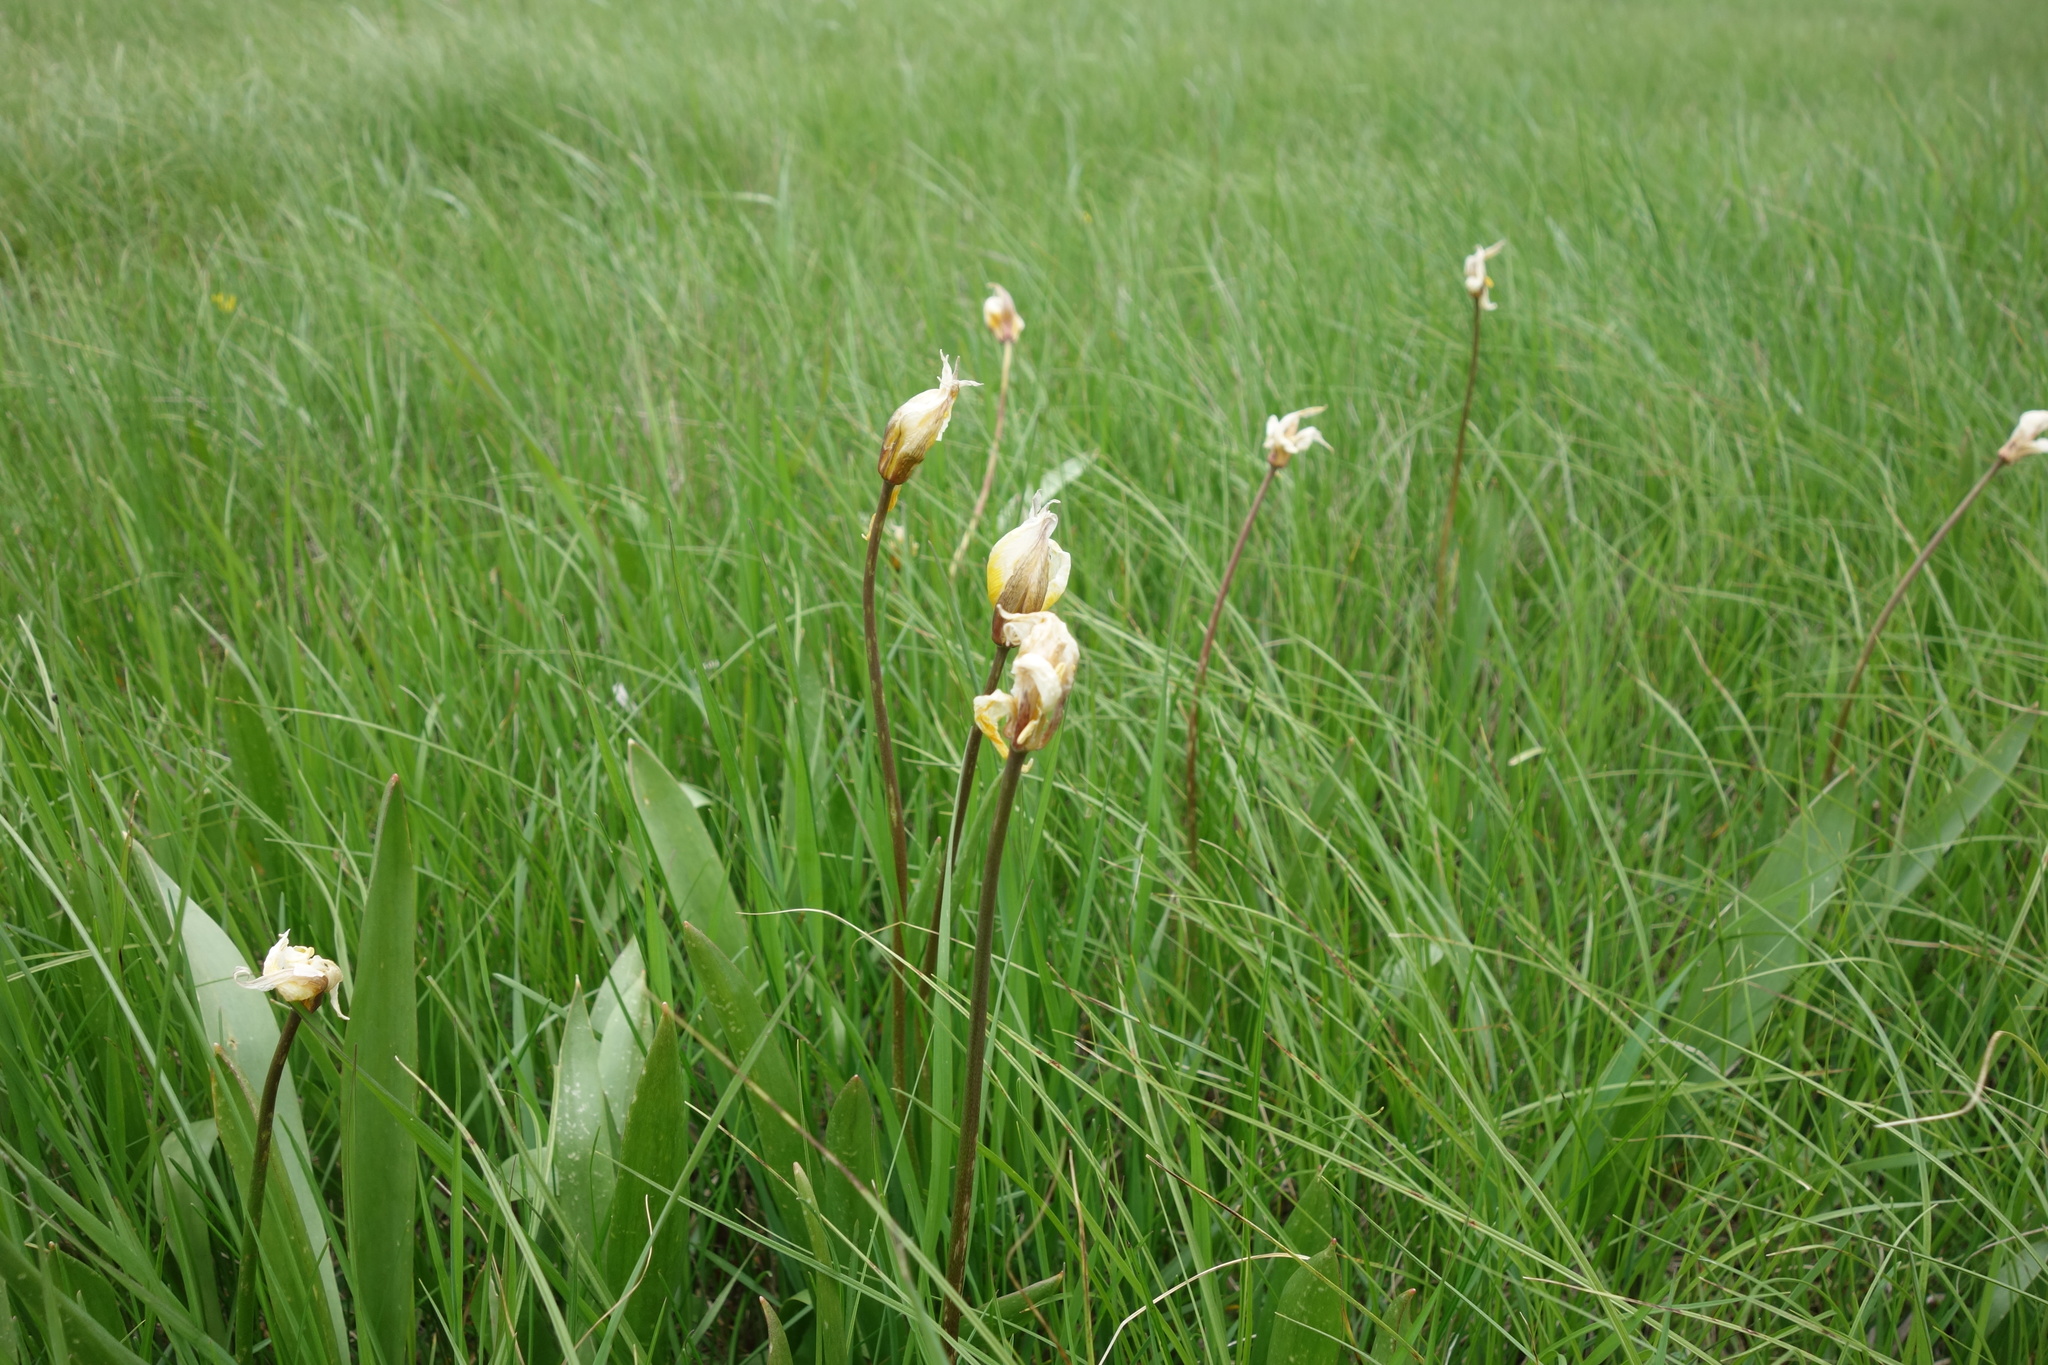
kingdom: Plantae
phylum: Tracheophyta
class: Liliopsida
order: Liliales
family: Liliaceae
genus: Tulipa
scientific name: Tulipa sylvestris
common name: Wild tulip
